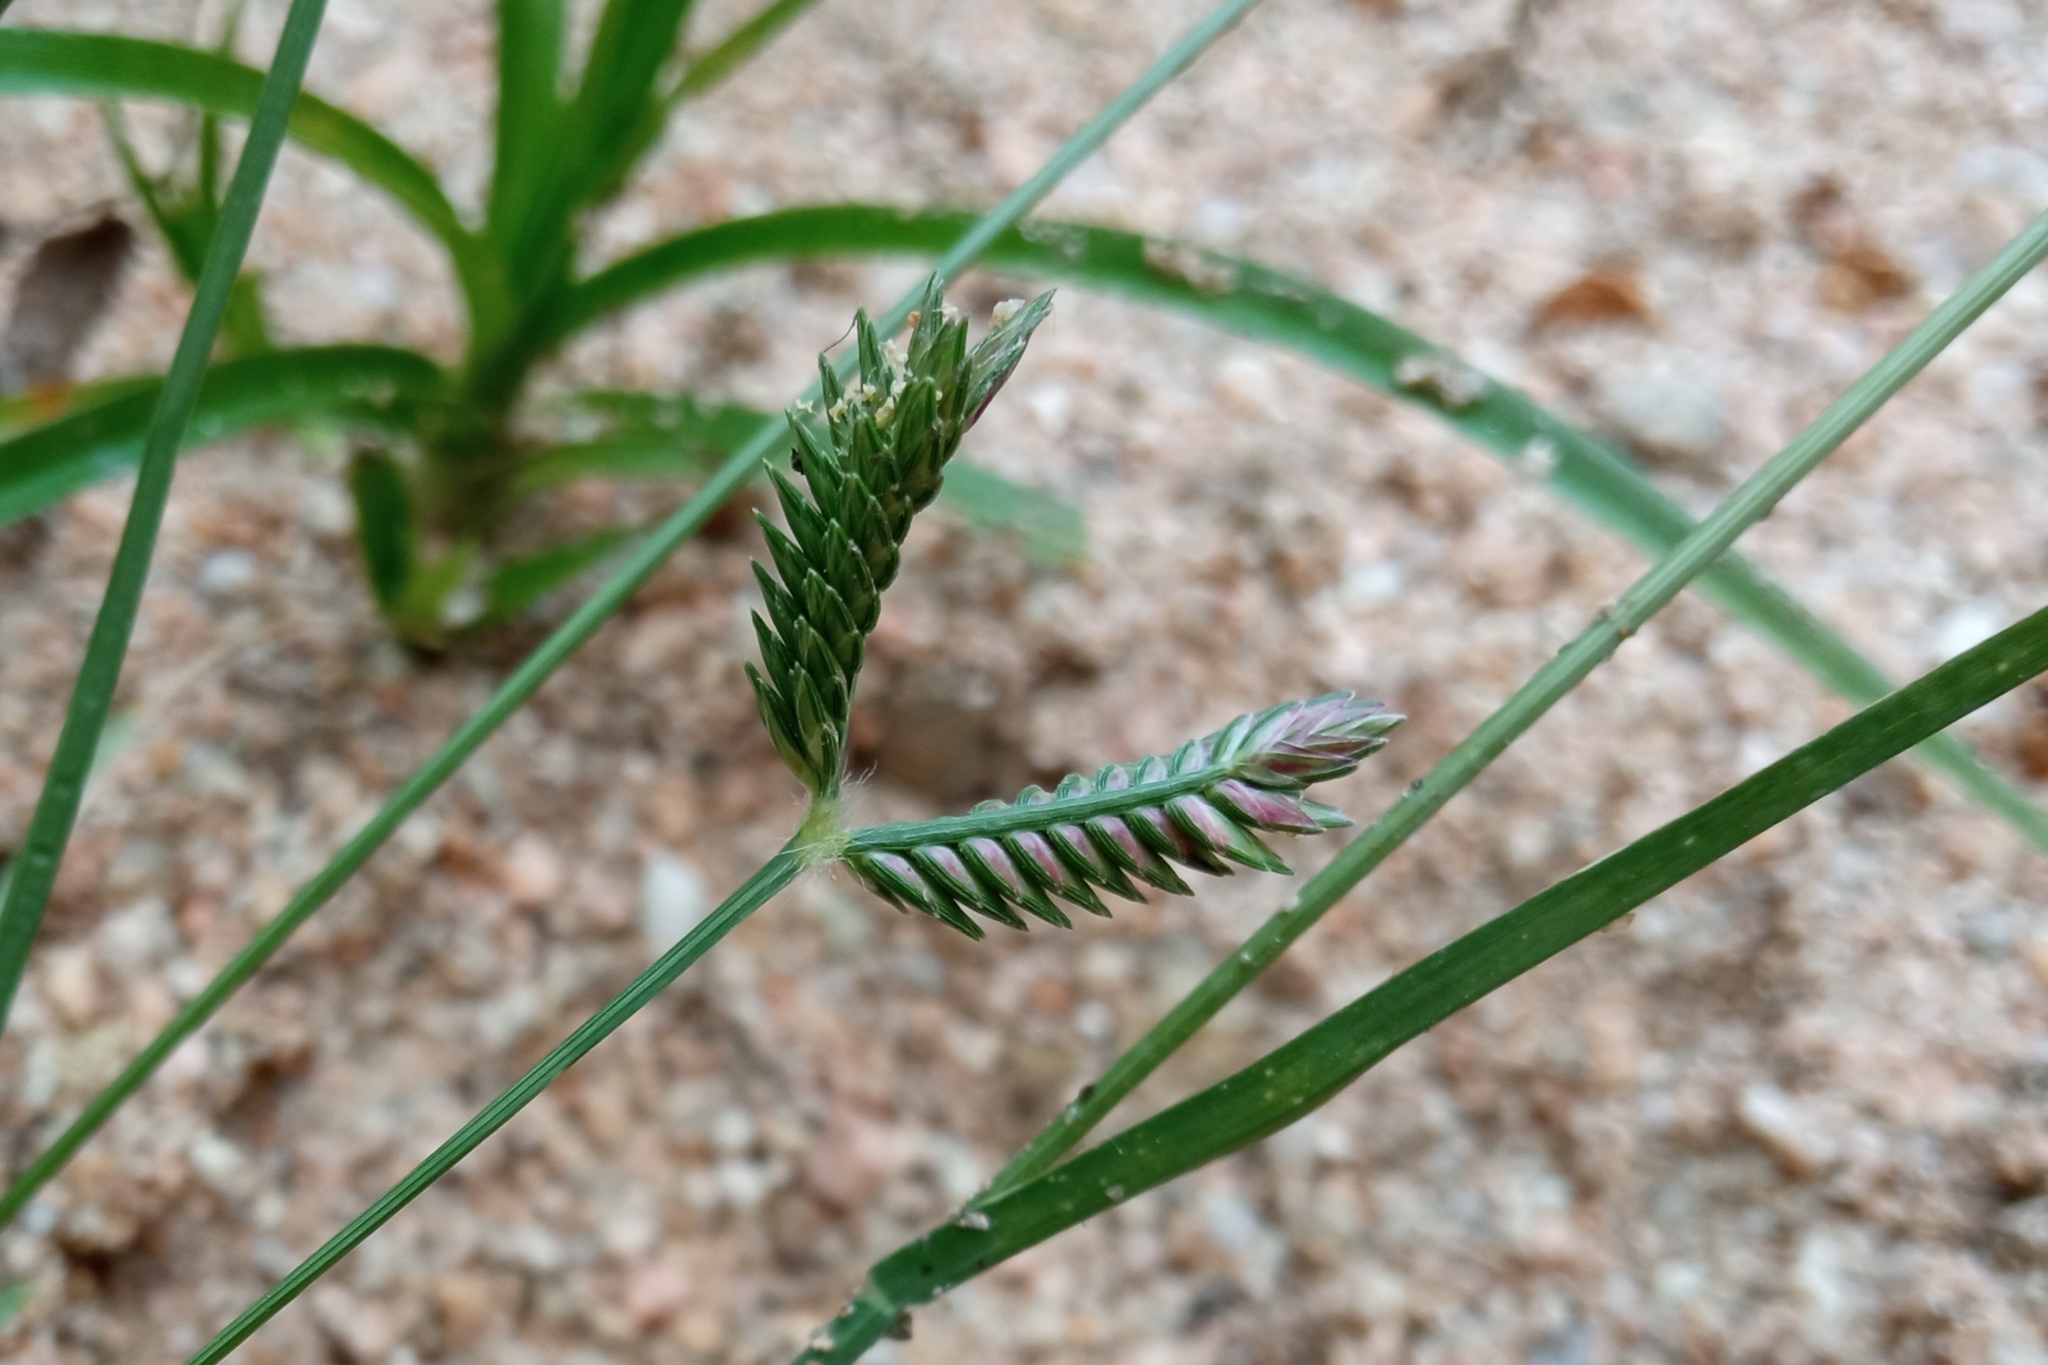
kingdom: Plantae
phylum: Tracheophyta
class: Liliopsida
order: Poales
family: Poaceae
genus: Eleusine
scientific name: Eleusine tristachya
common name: American yard-grass
